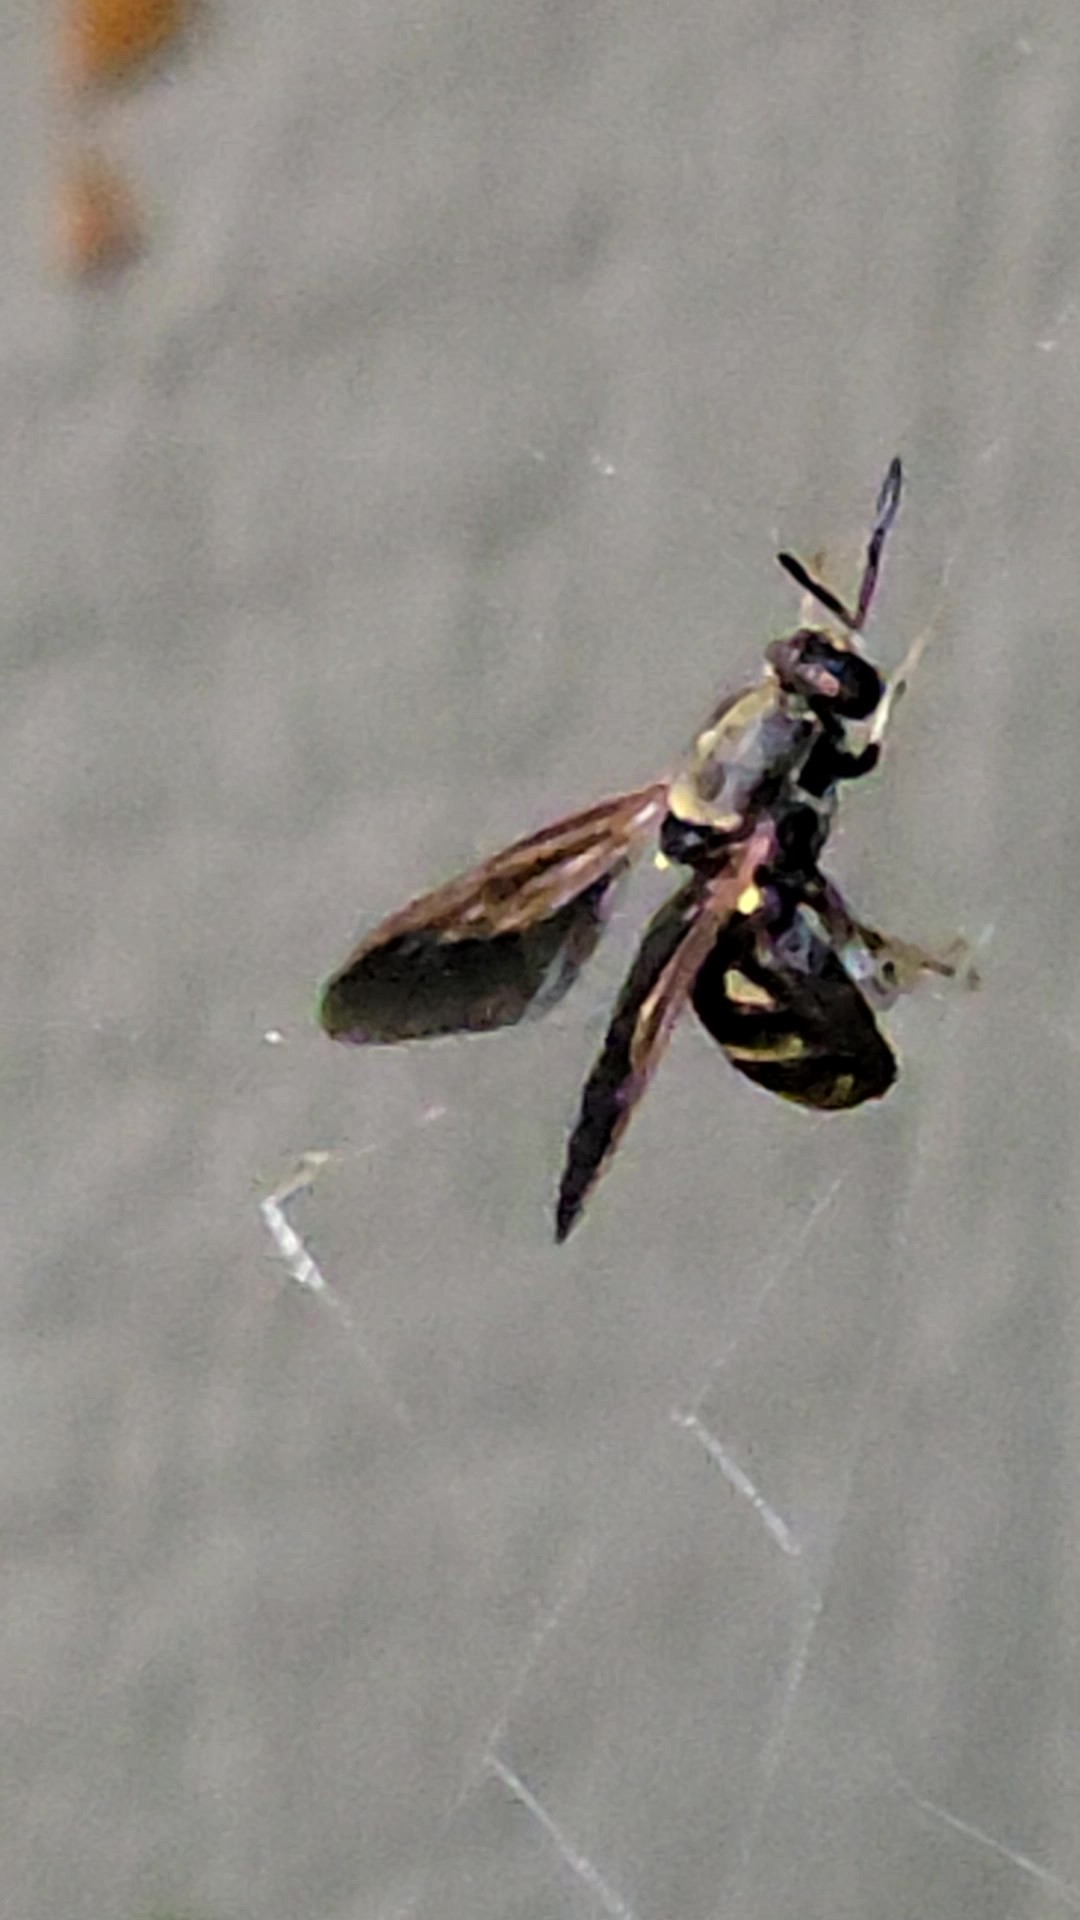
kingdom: Animalia
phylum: Arthropoda
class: Insecta
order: Diptera
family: Stratiomyidae
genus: Hermetia
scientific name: Hermetia chrysopila
